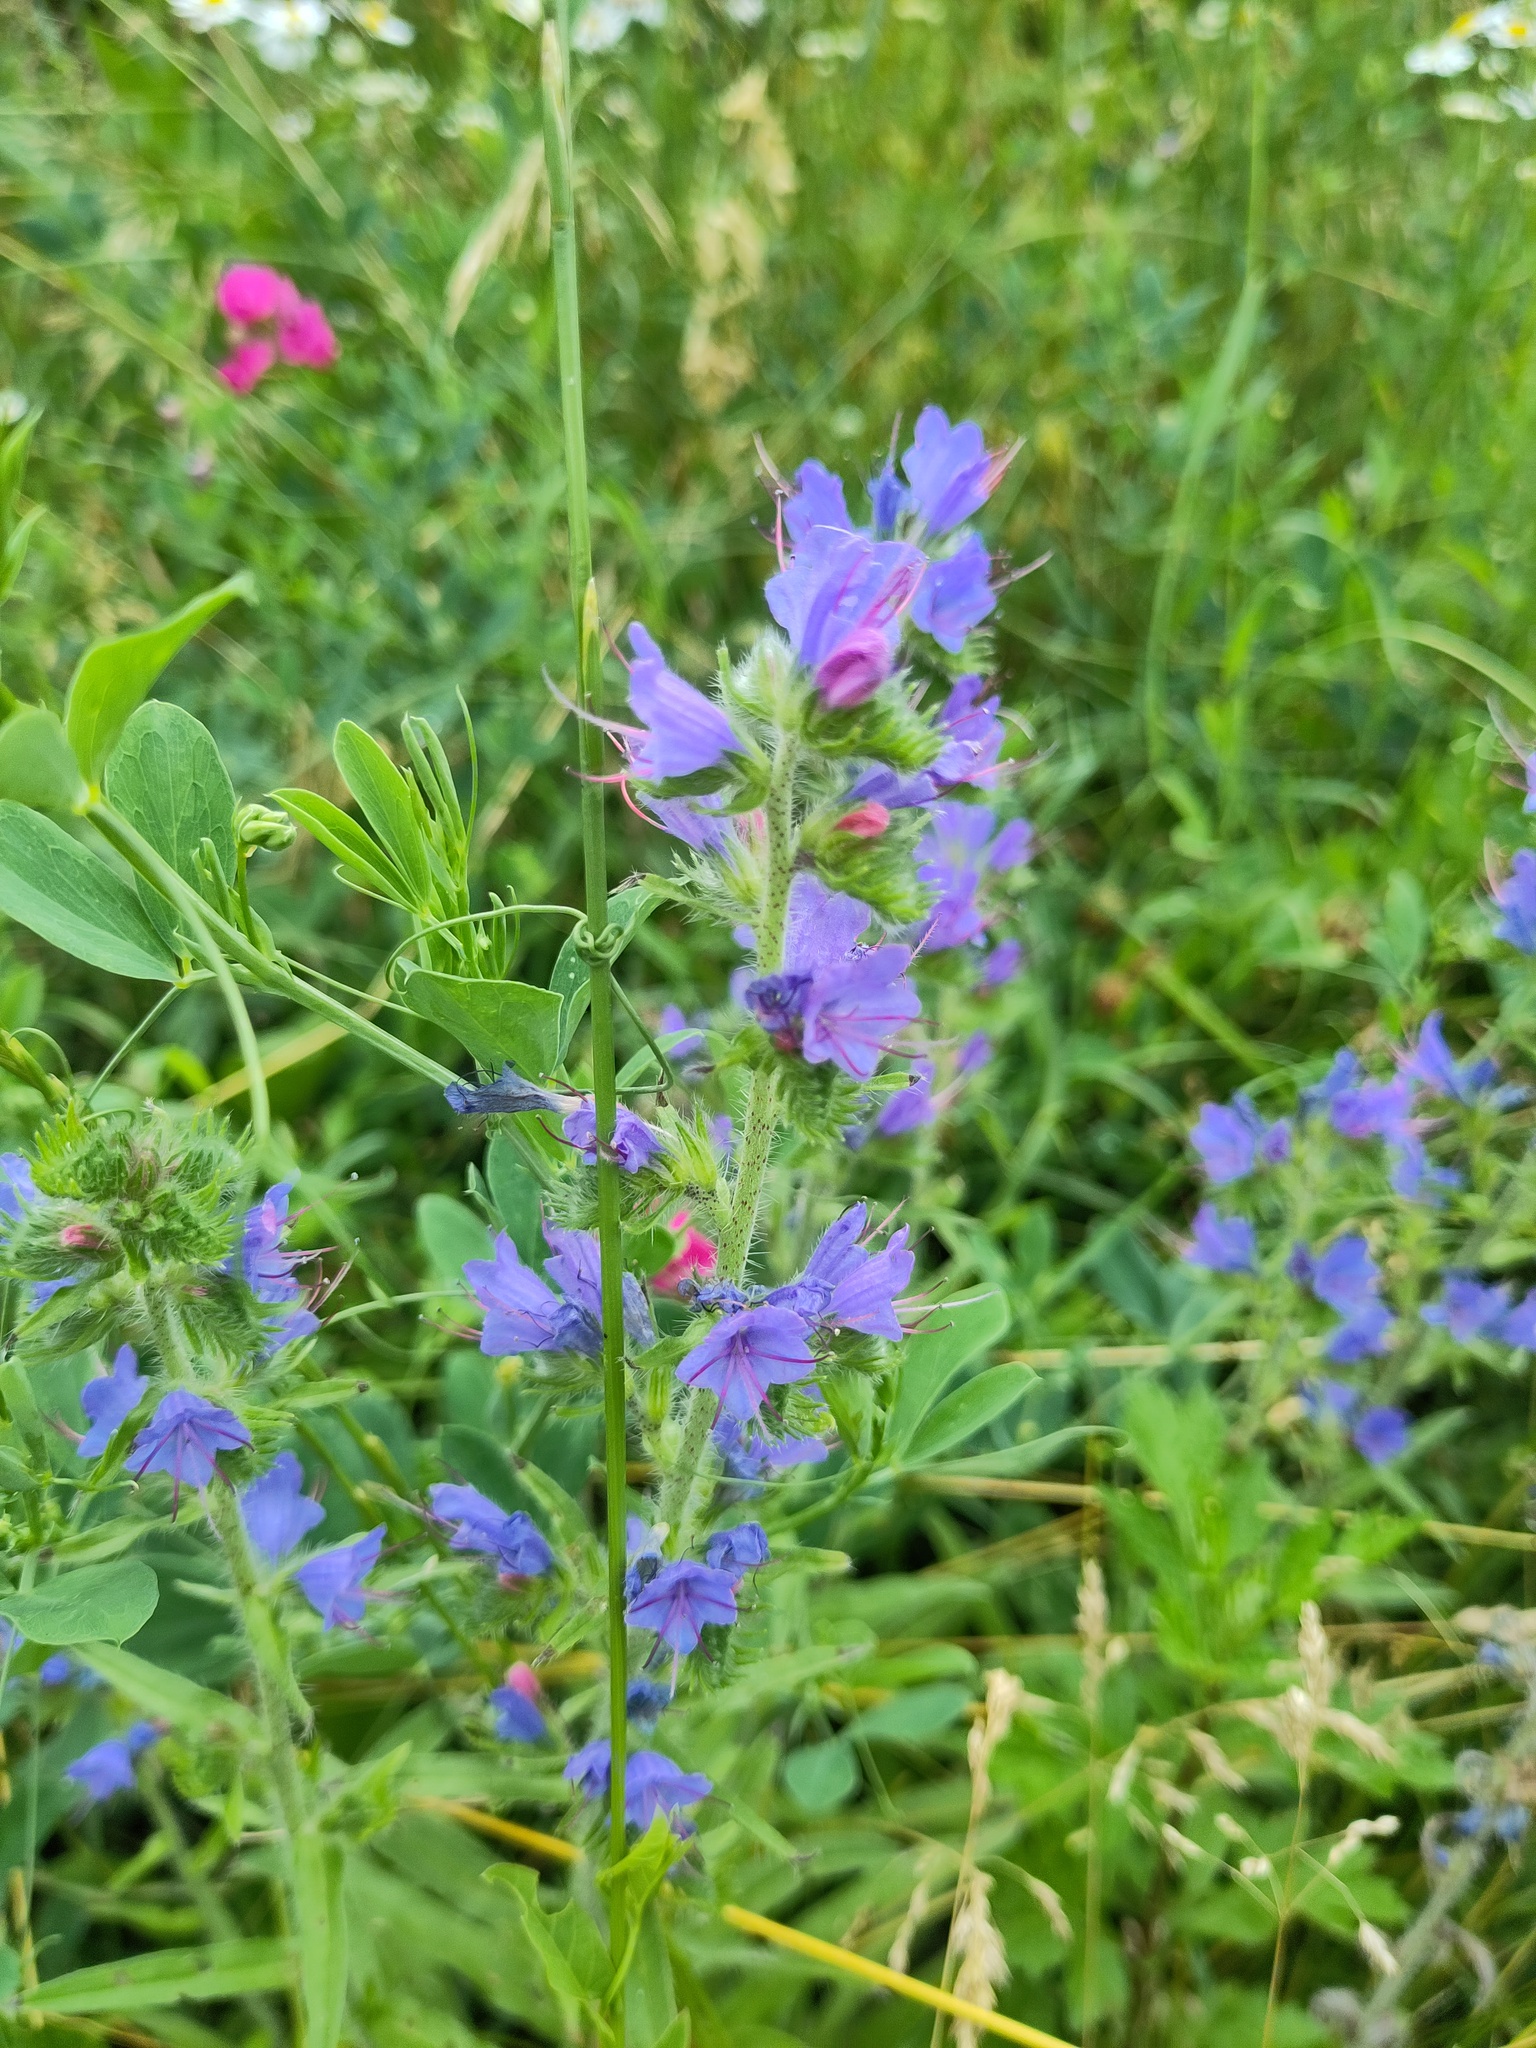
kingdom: Plantae
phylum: Tracheophyta
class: Magnoliopsida
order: Boraginales
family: Boraginaceae
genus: Echium
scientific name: Echium vulgare
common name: Common viper's bugloss
